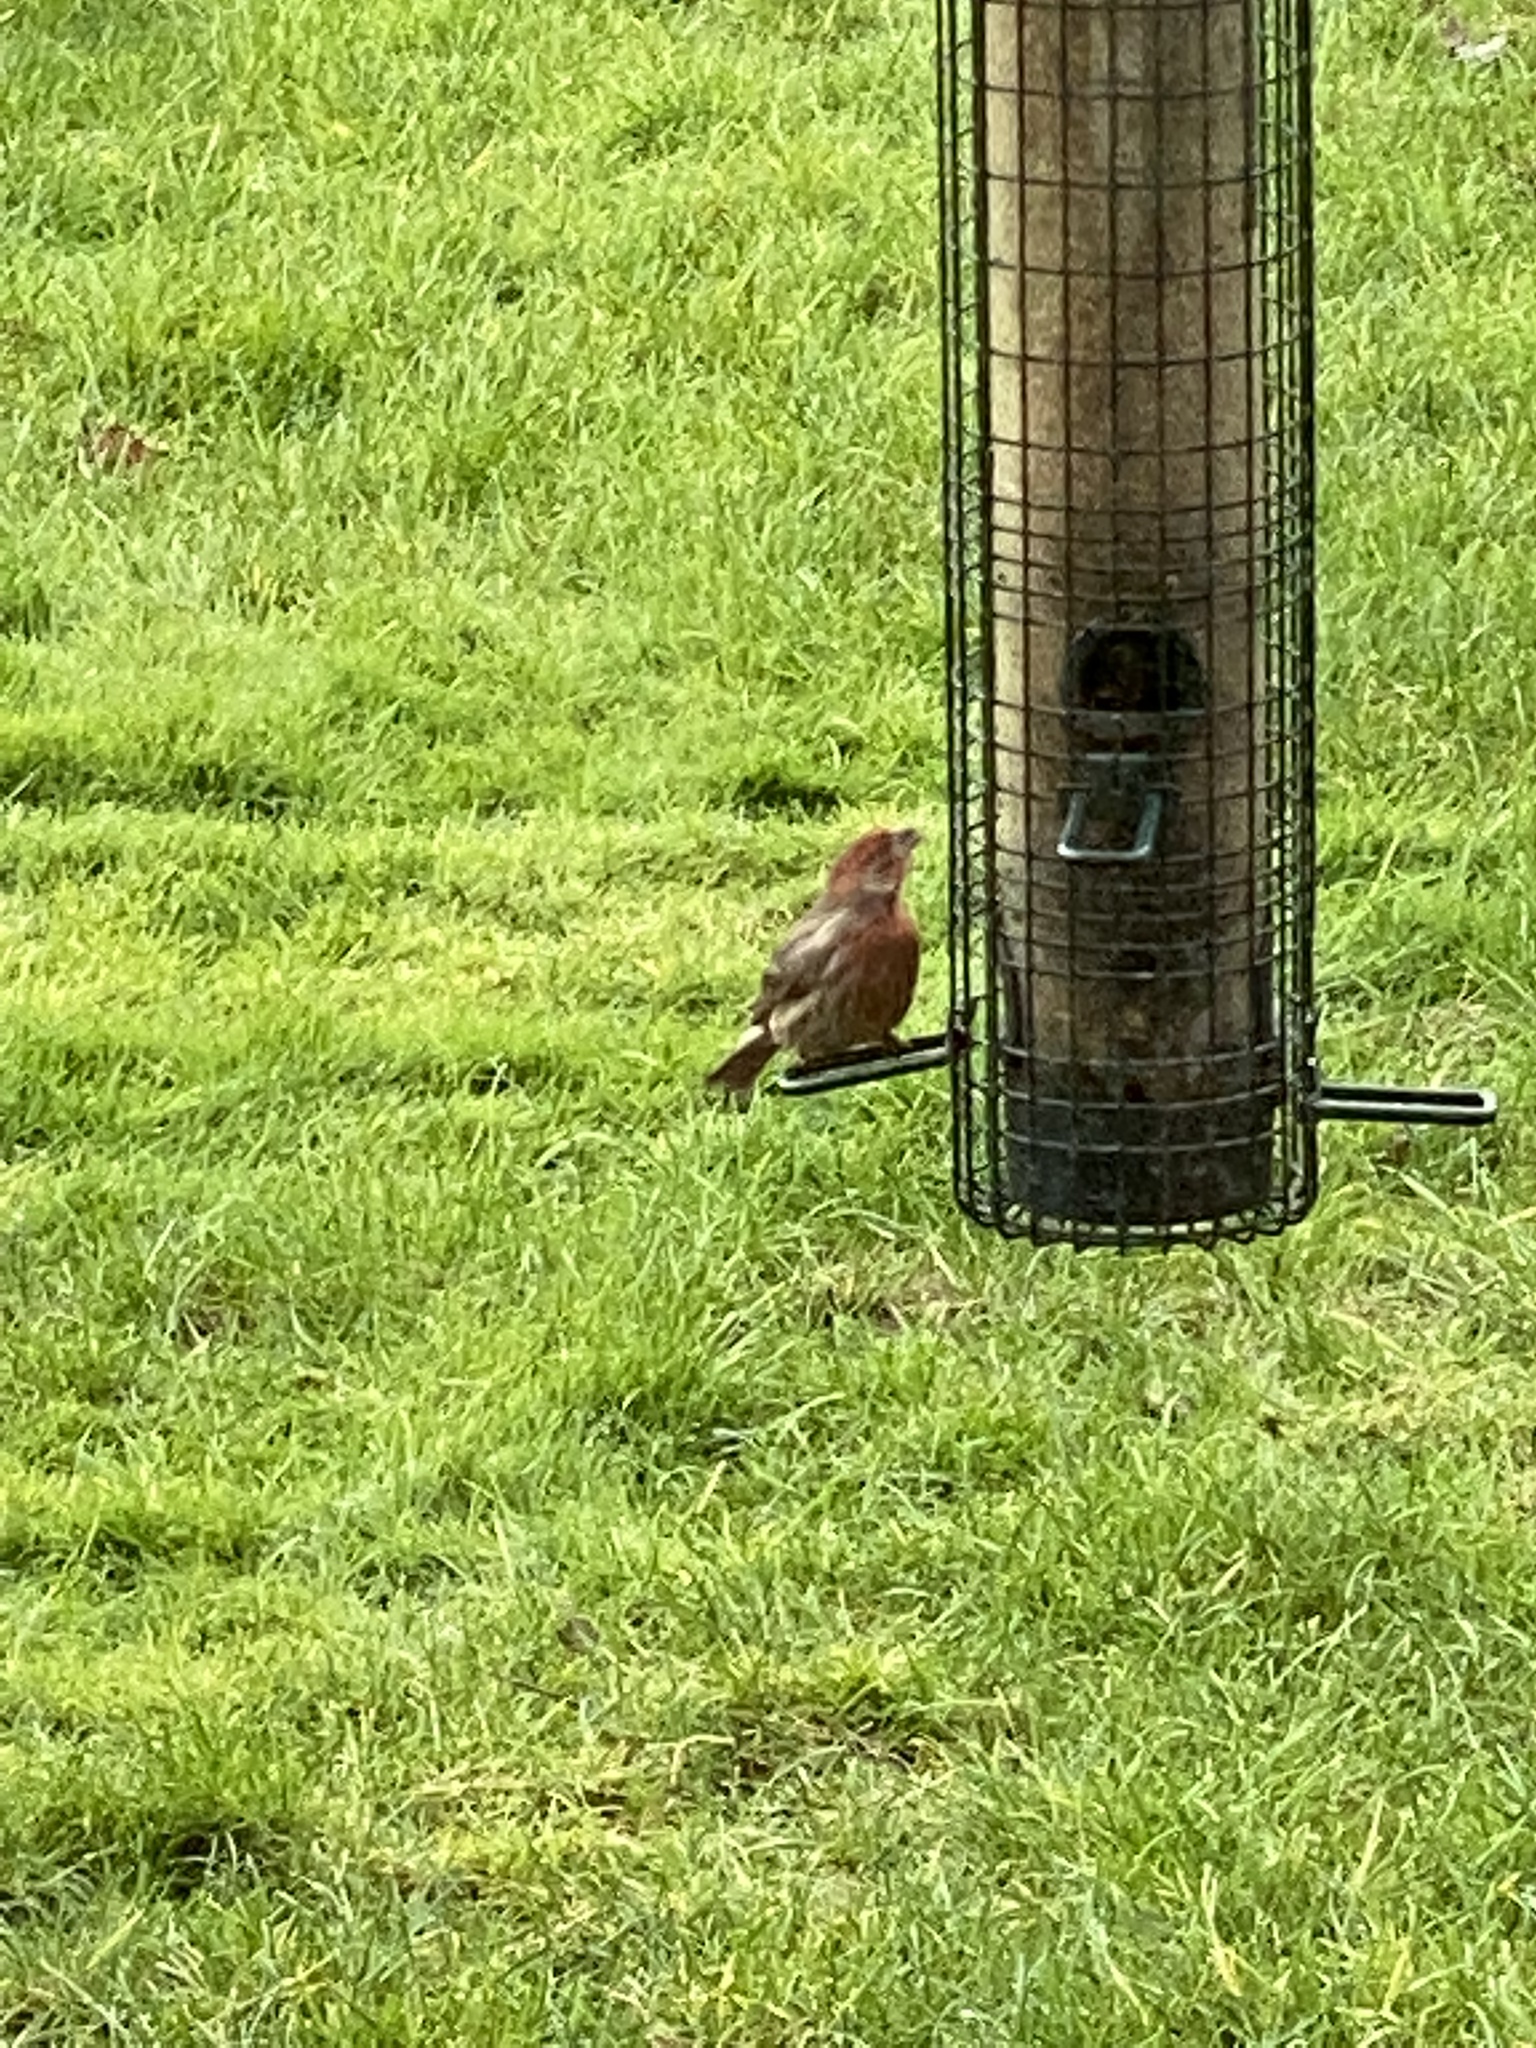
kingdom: Animalia
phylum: Chordata
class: Aves
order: Passeriformes
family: Fringillidae
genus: Haemorhous
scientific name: Haemorhous mexicanus
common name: House finch
